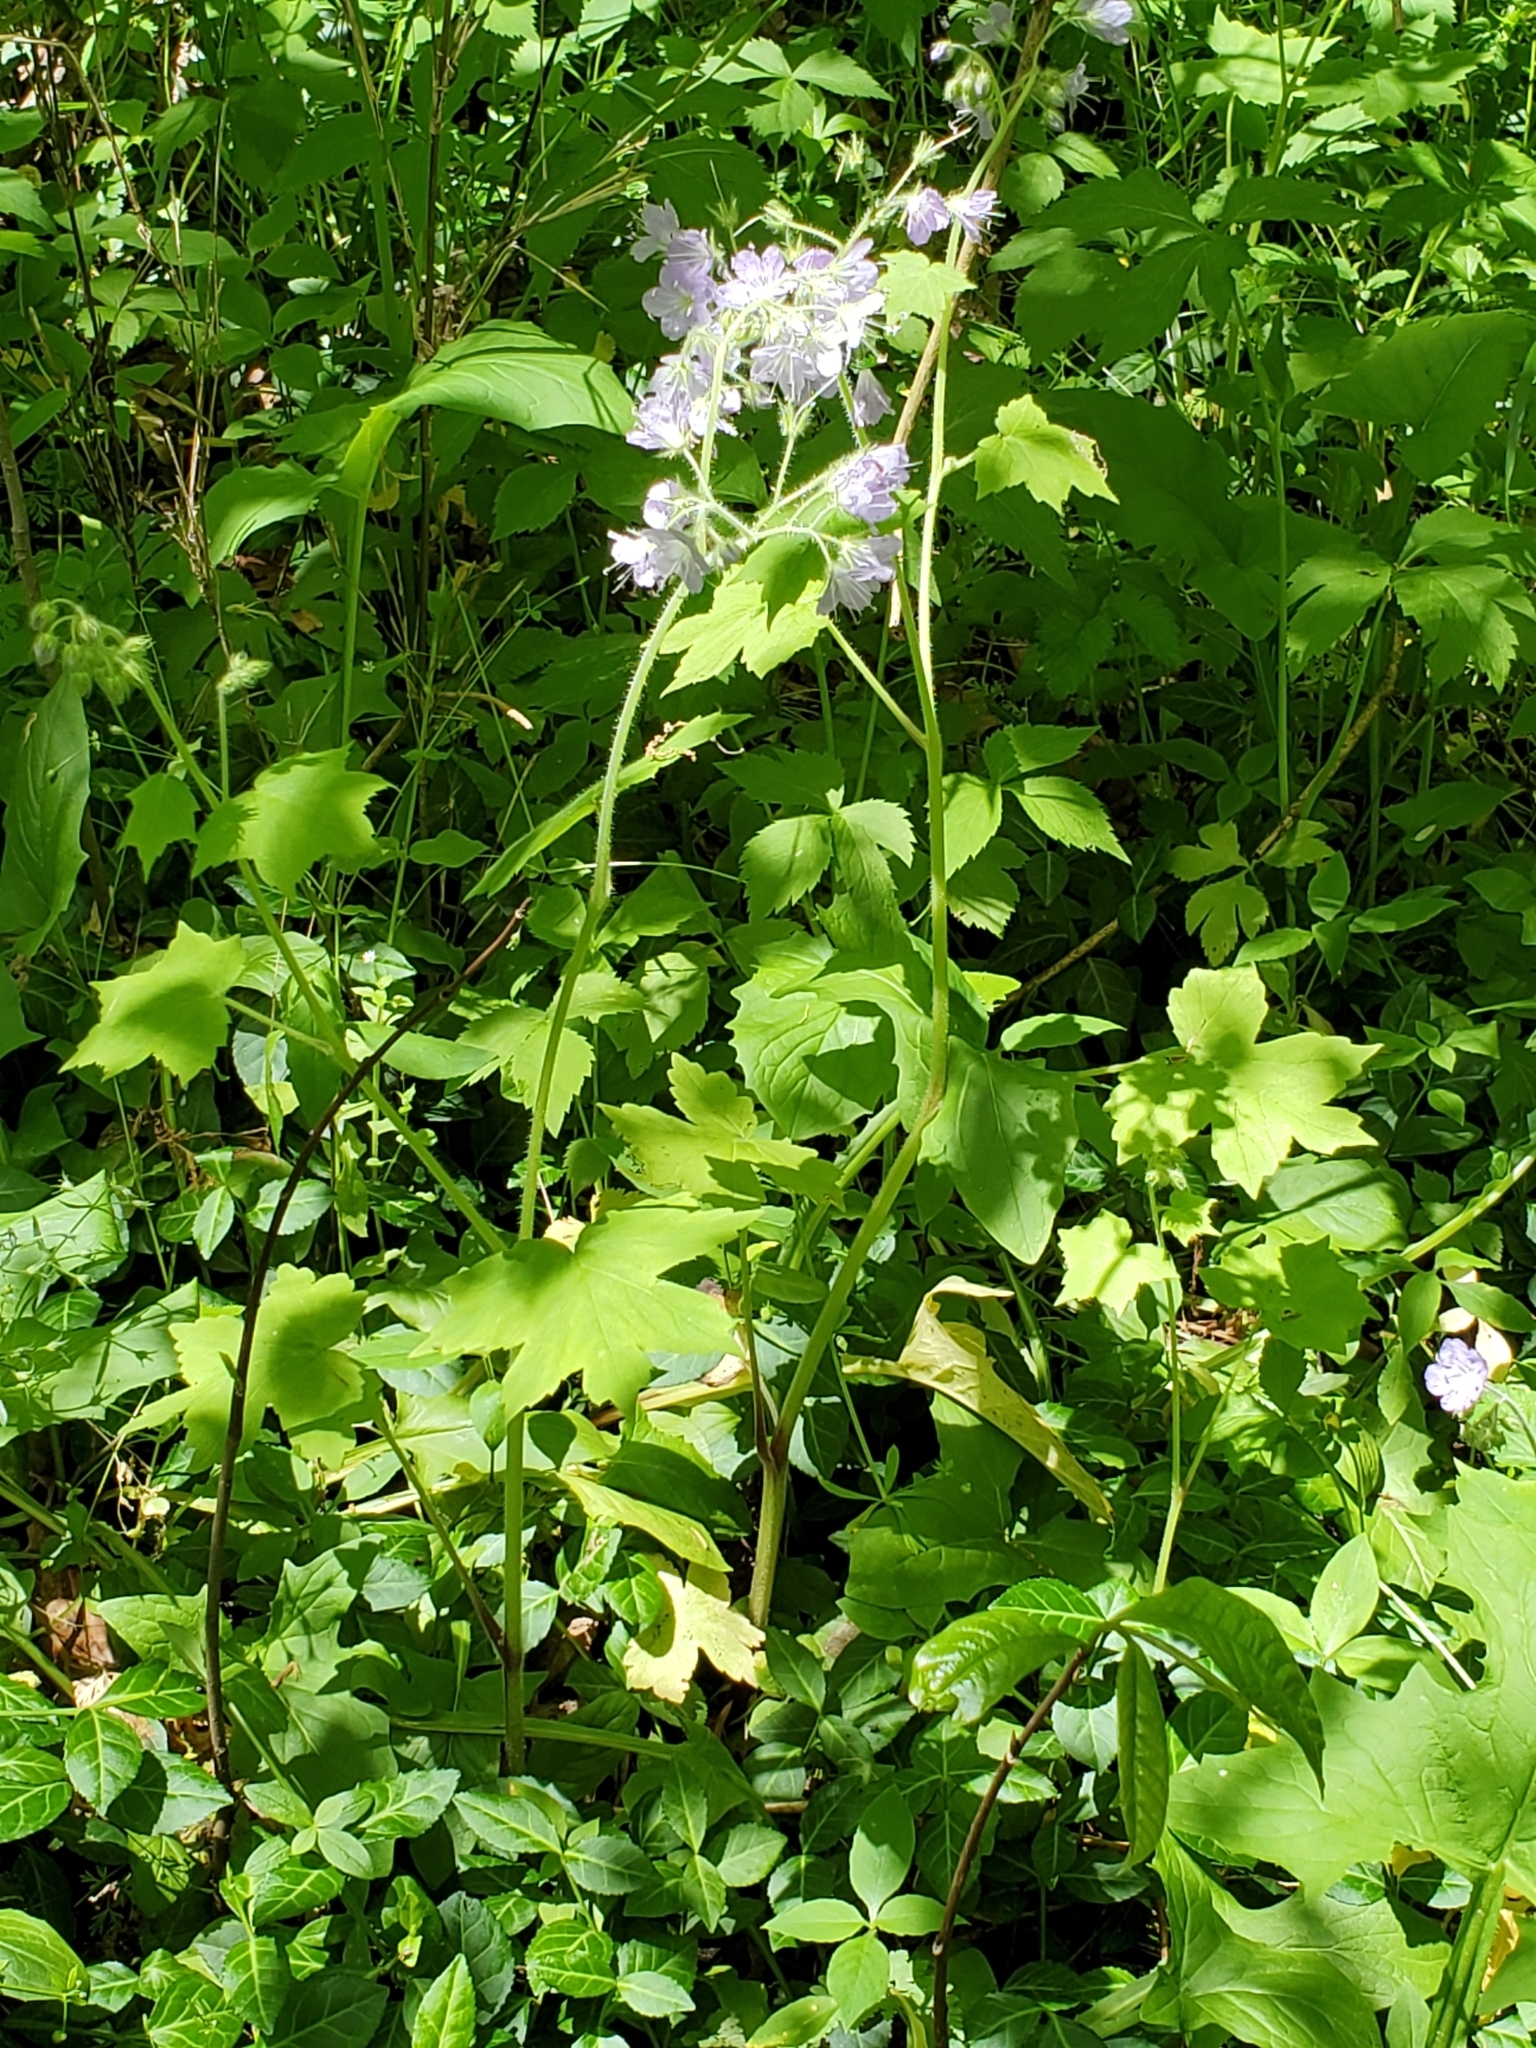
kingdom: Plantae
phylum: Tracheophyta
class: Magnoliopsida
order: Boraginales
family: Hydrophyllaceae
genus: Hydrophyllum
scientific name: Hydrophyllum appendiculatum
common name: Appendaged waterleaf
